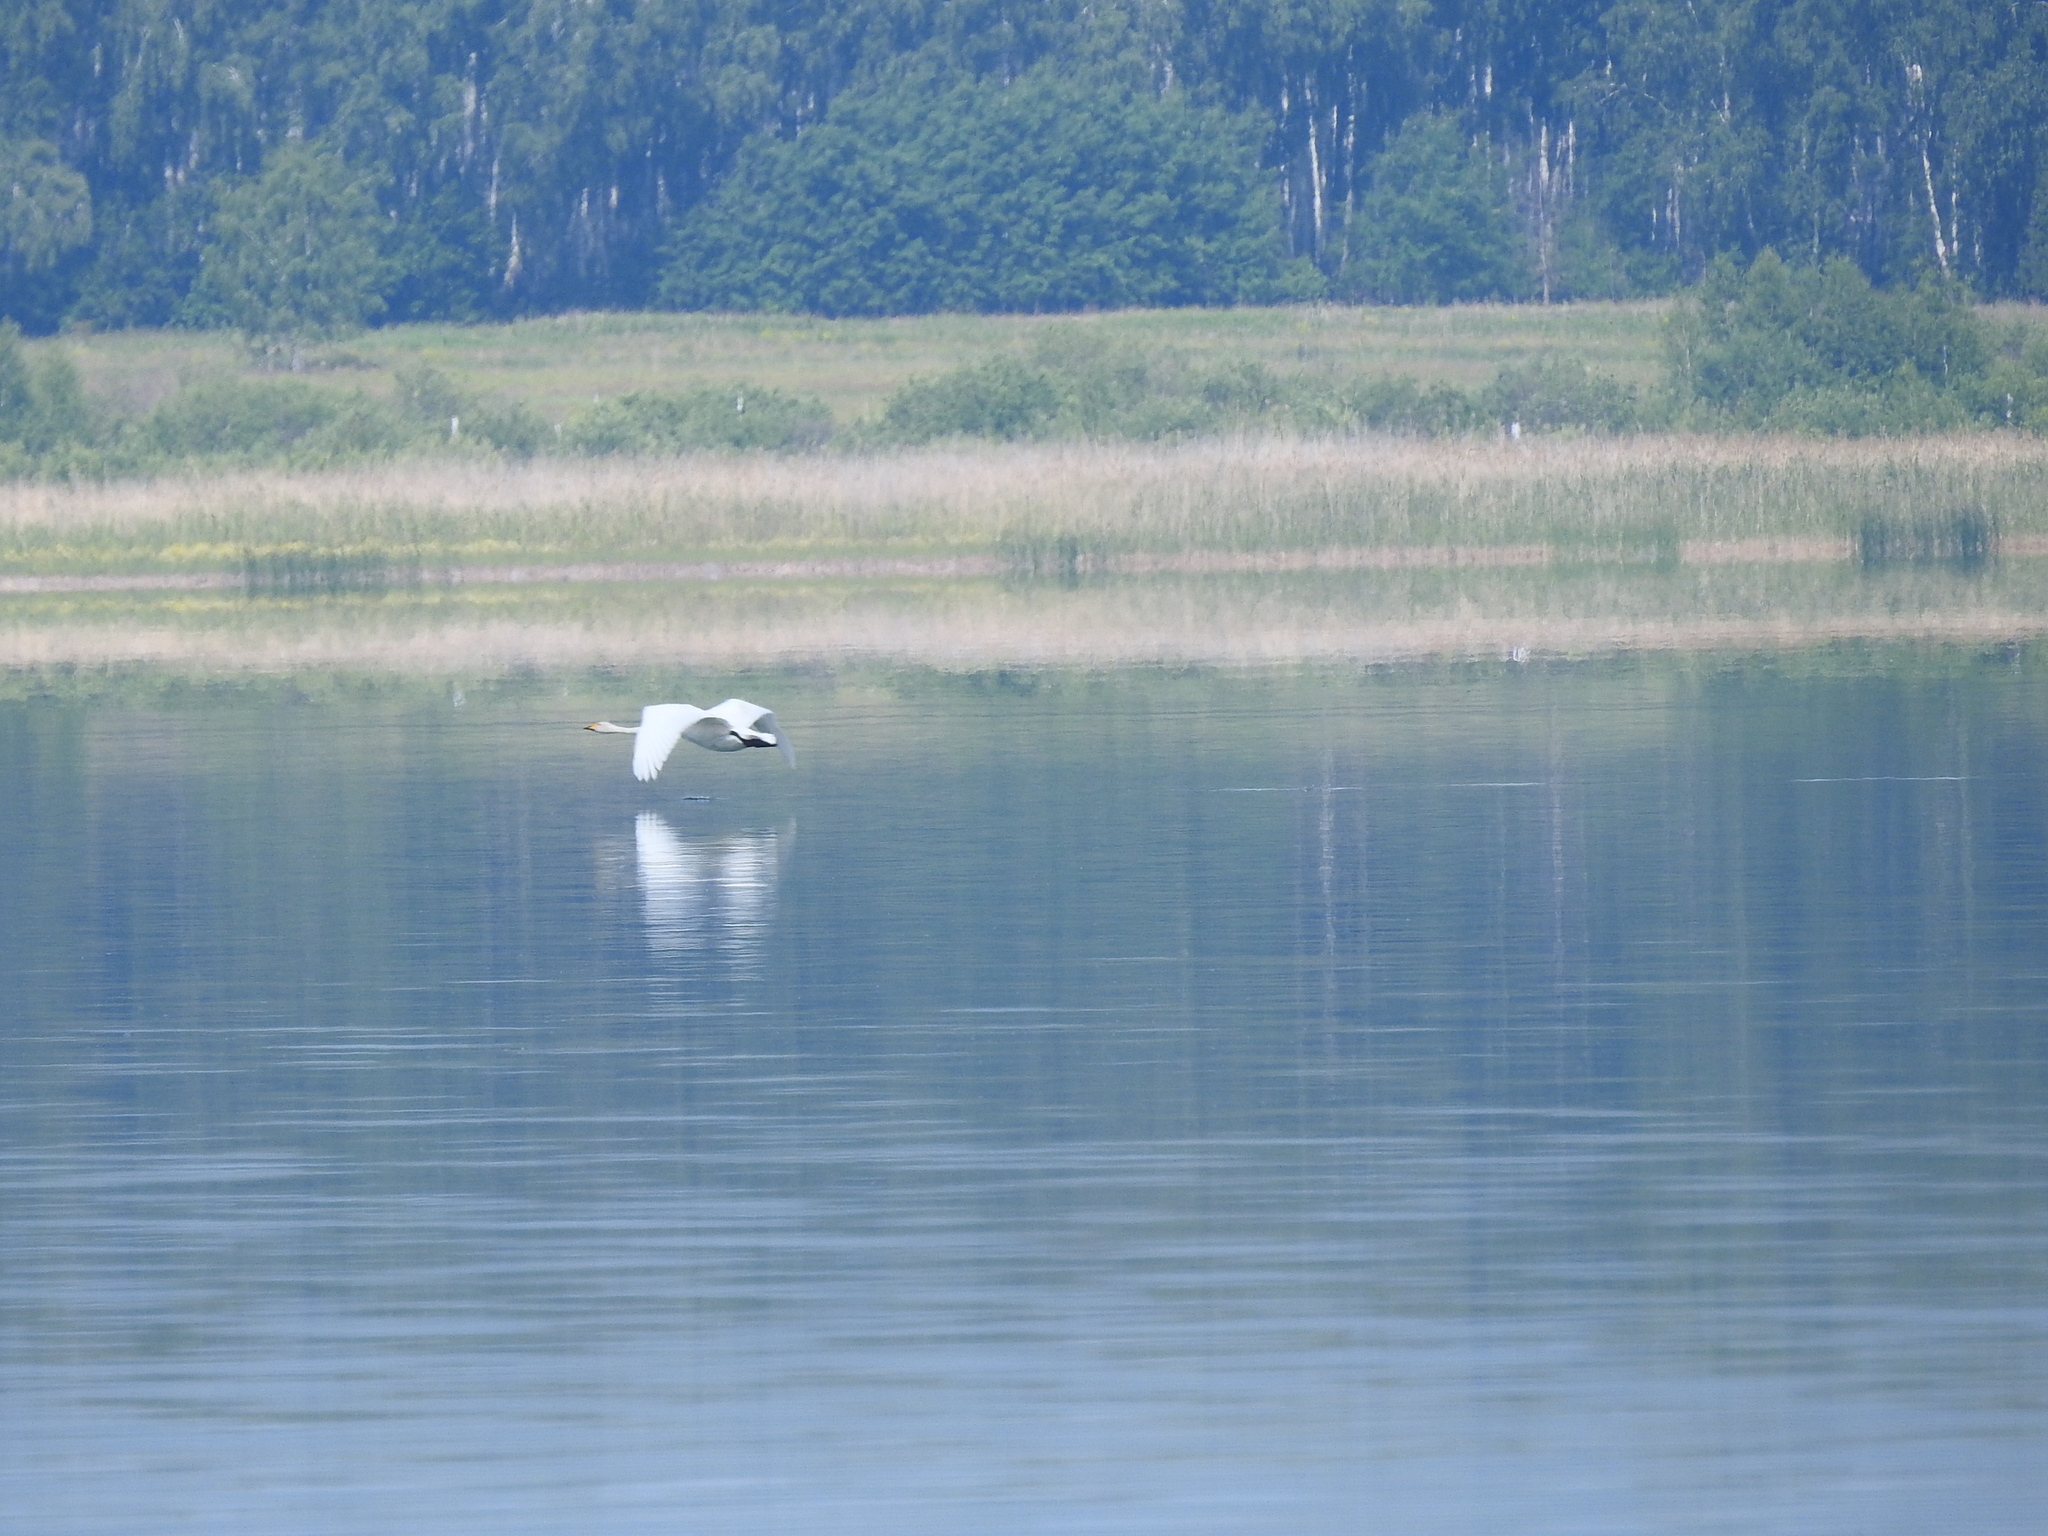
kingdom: Animalia
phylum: Chordata
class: Aves
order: Anseriformes
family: Anatidae
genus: Cygnus
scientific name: Cygnus cygnus
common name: Whooper swan
